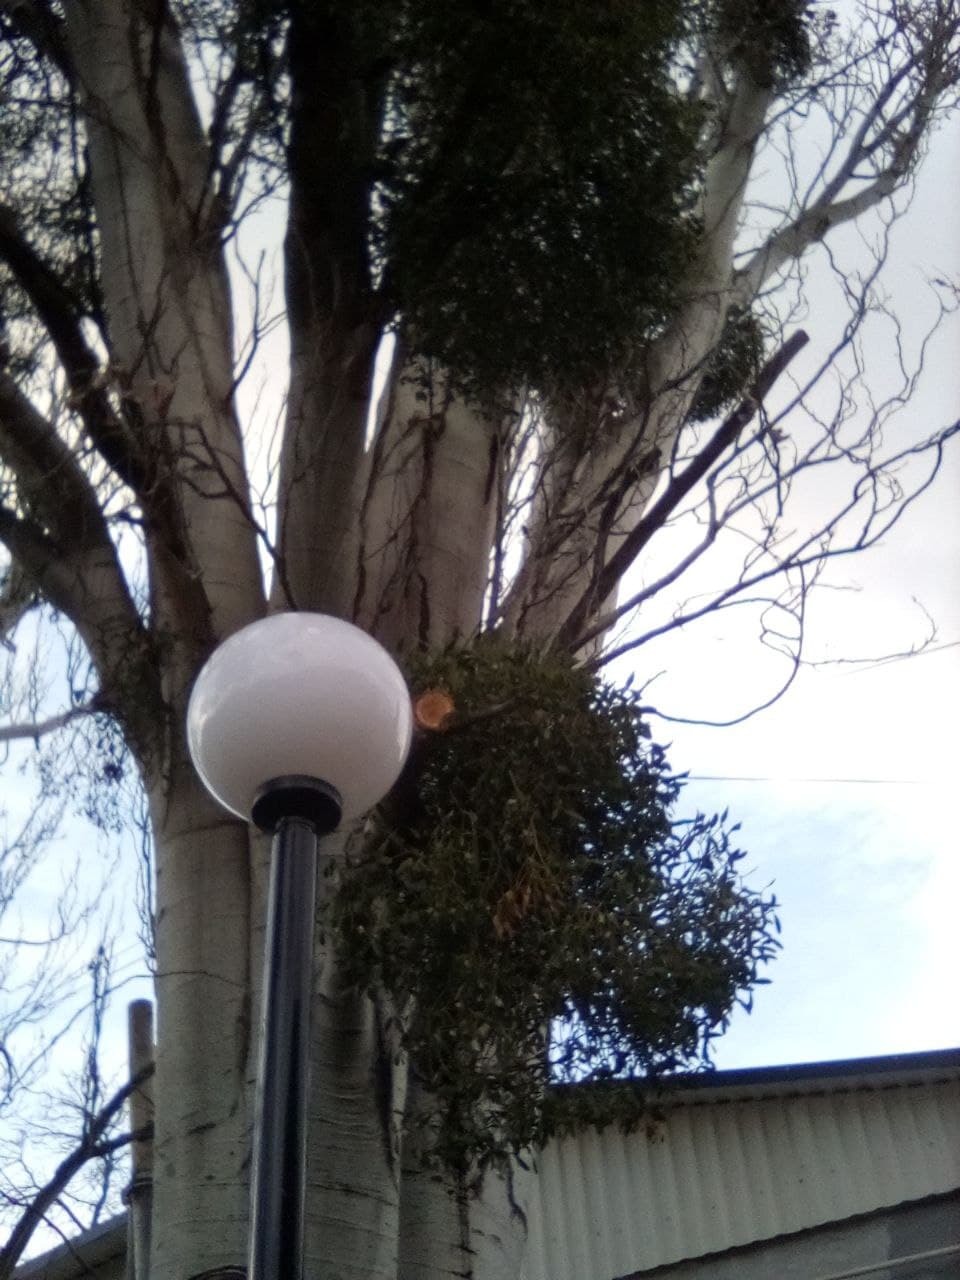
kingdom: Plantae
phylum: Tracheophyta
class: Magnoliopsida
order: Santalales
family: Viscaceae
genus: Viscum
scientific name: Viscum album
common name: Mistletoe
